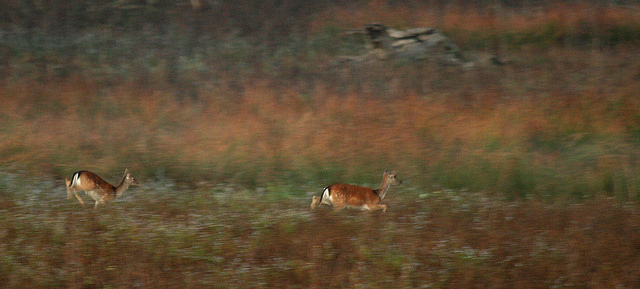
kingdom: Animalia
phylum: Chordata
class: Mammalia
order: Artiodactyla
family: Cervidae
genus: Dama
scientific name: Dama dama
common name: Fallow deer
